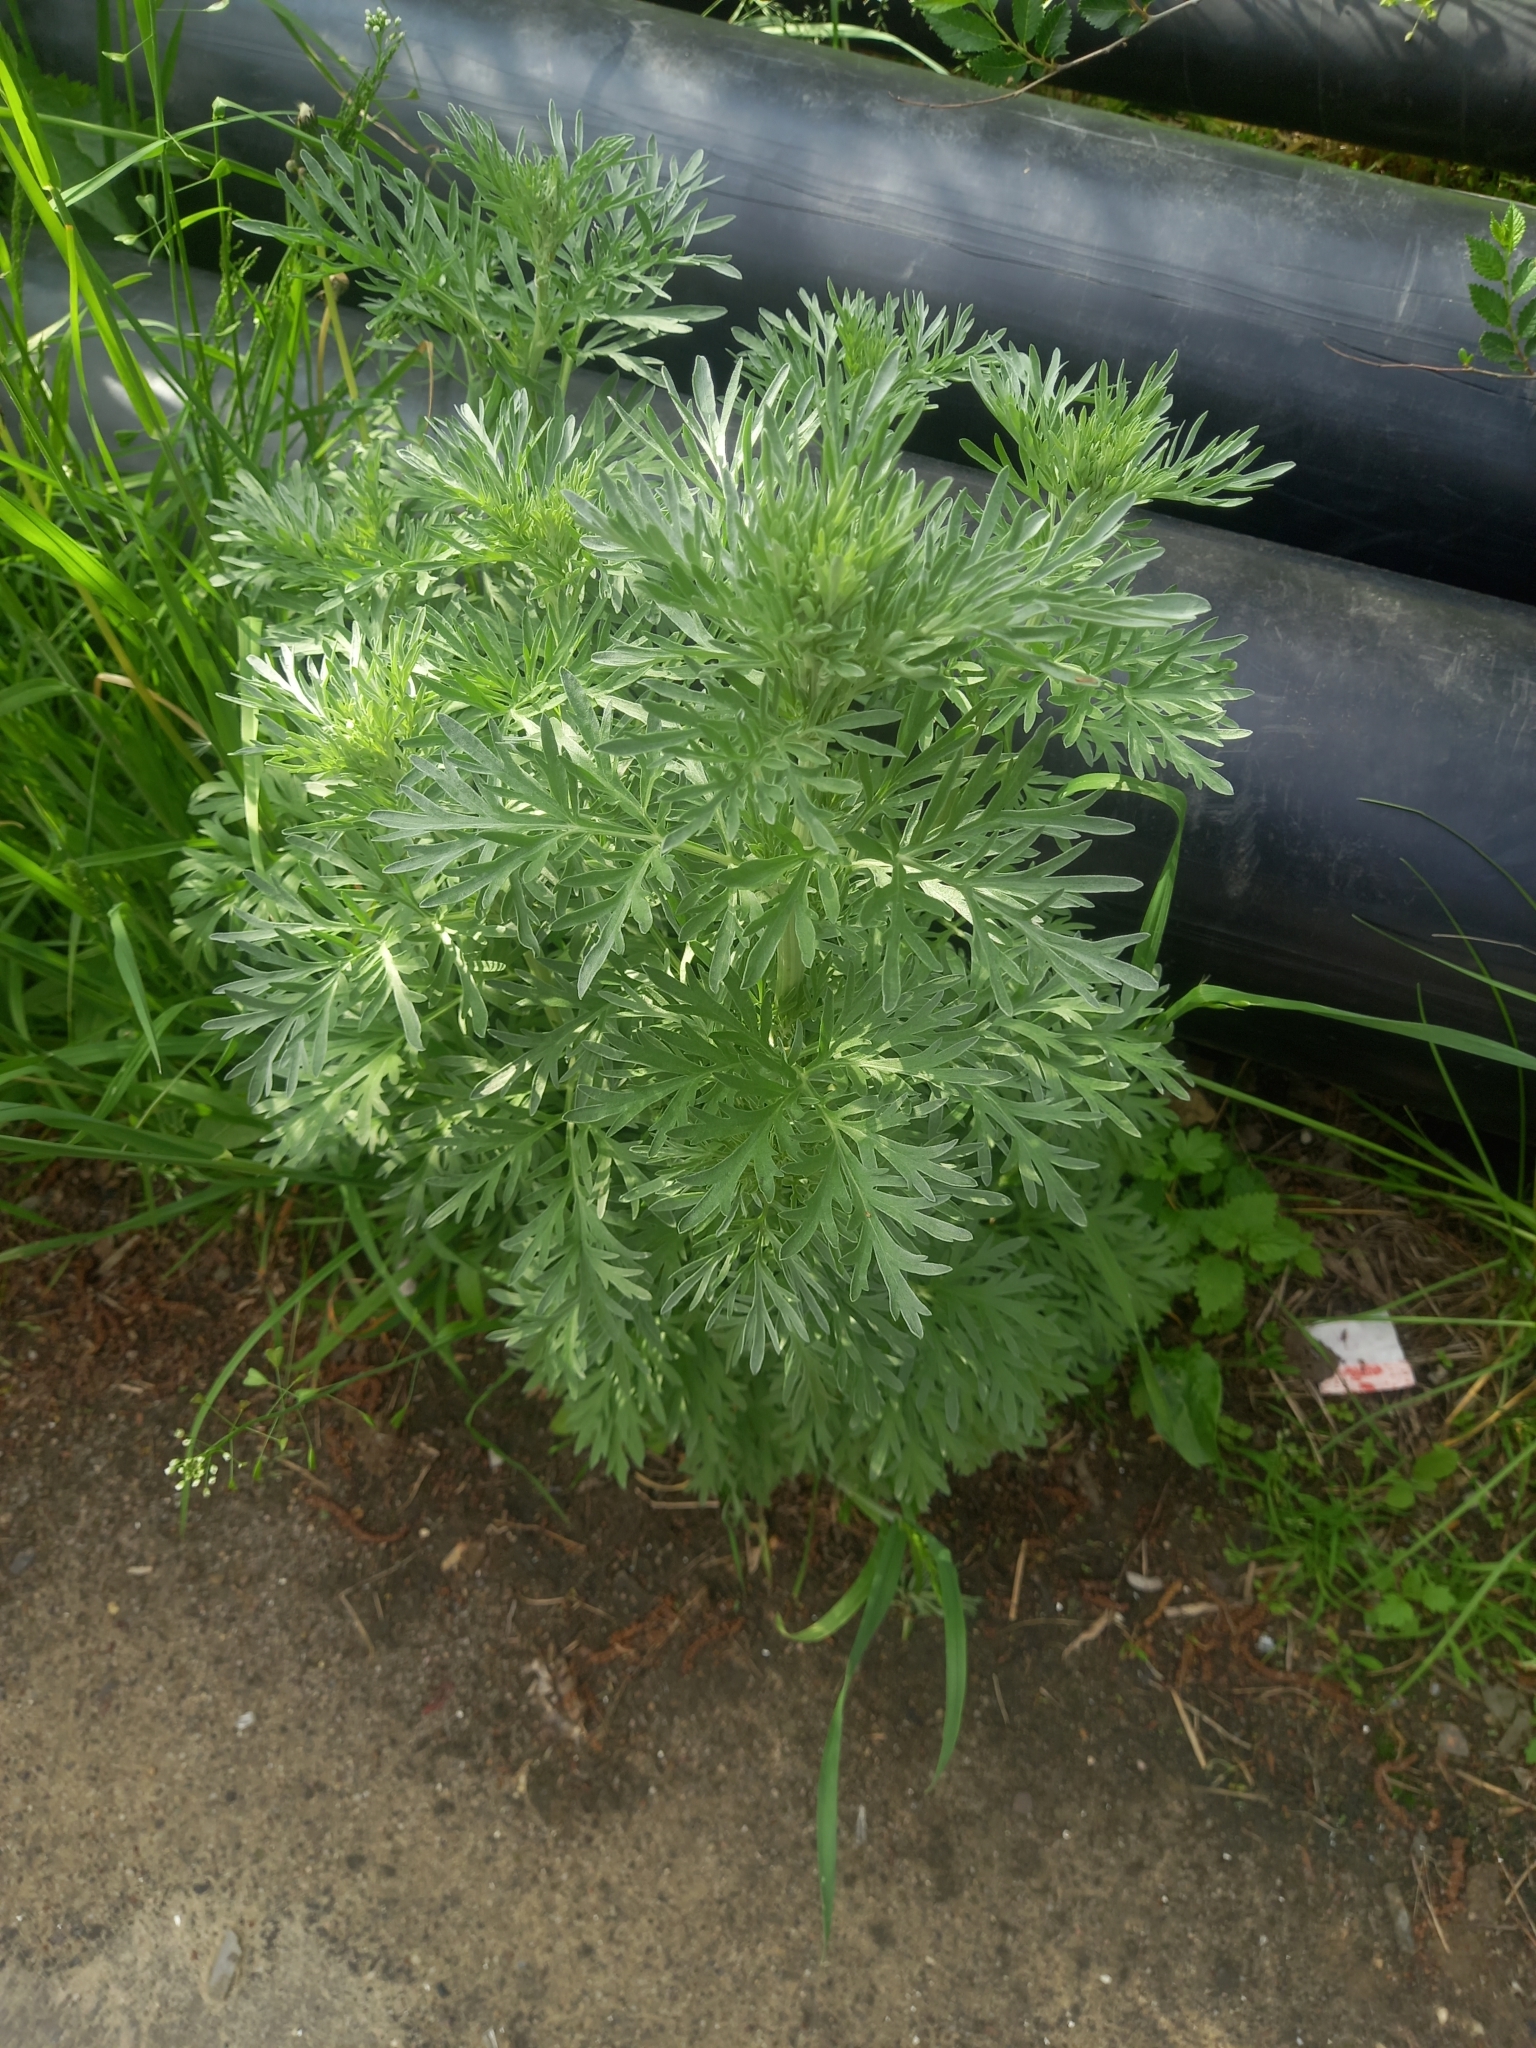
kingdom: Plantae
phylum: Tracheophyta
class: Magnoliopsida
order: Asterales
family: Asteraceae
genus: Artemisia
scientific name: Artemisia absinthium
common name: Wormwood
